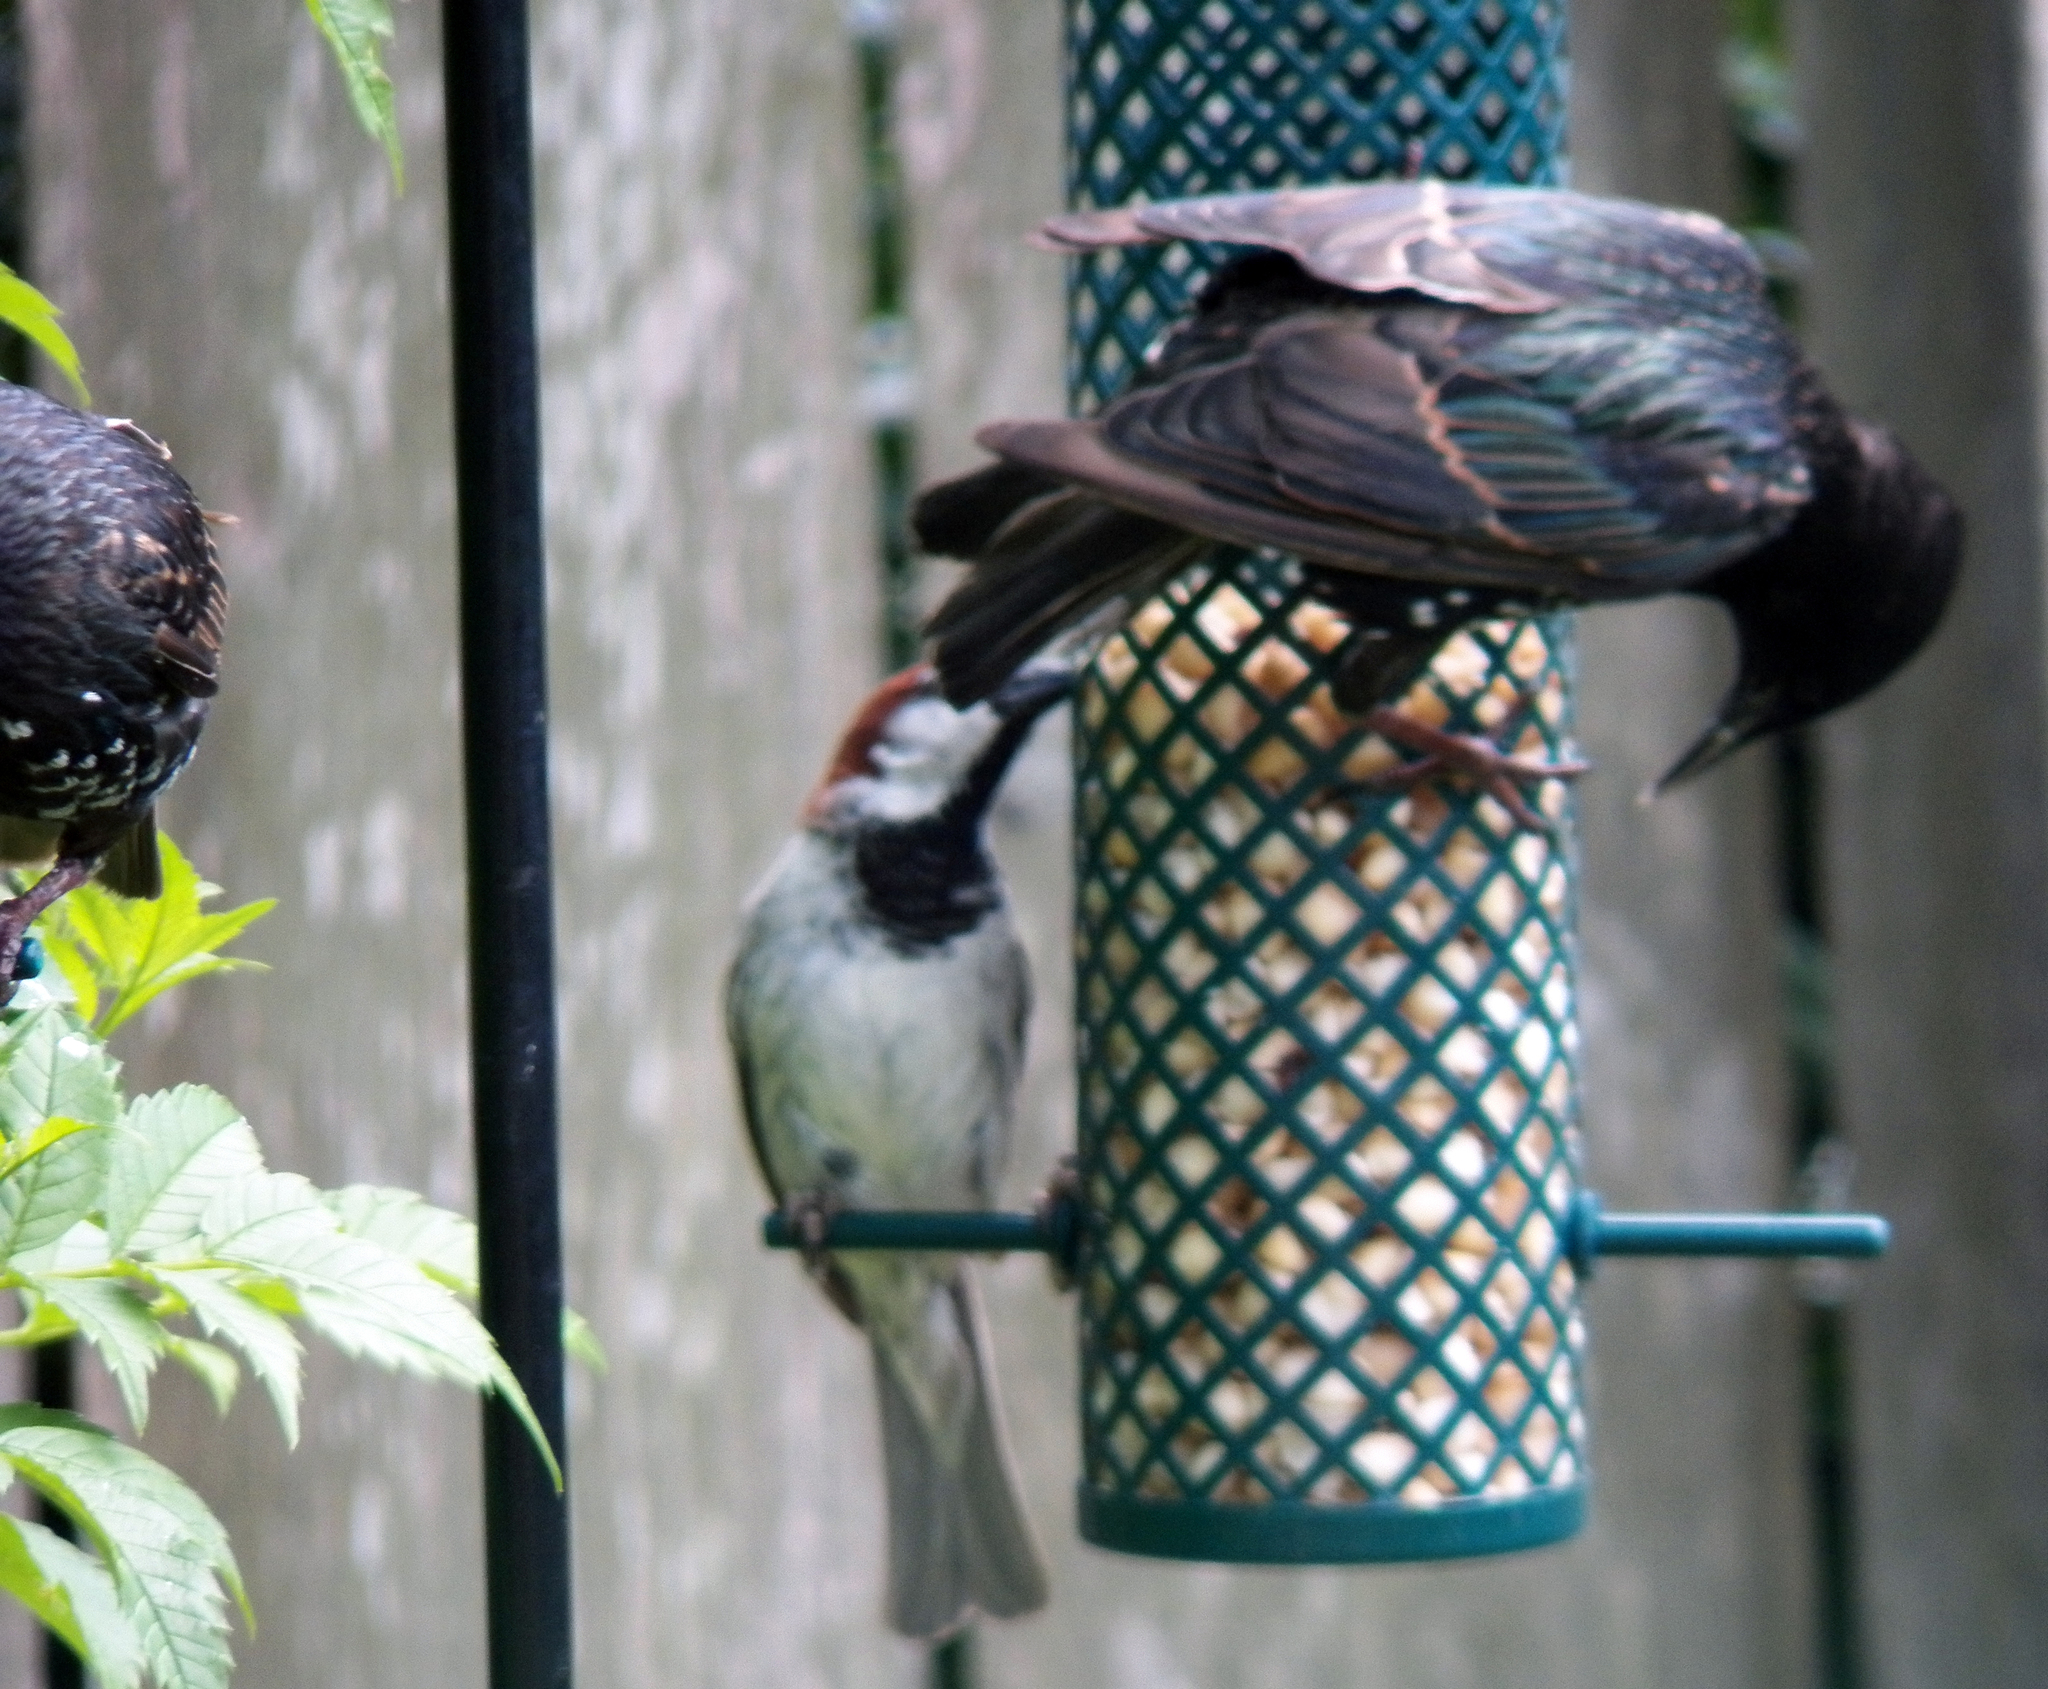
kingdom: Animalia
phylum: Chordata
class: Aves
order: Passeriformes
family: Sturnidae
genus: Sturnus
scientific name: Sturnus vulgaris
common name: Common starling
